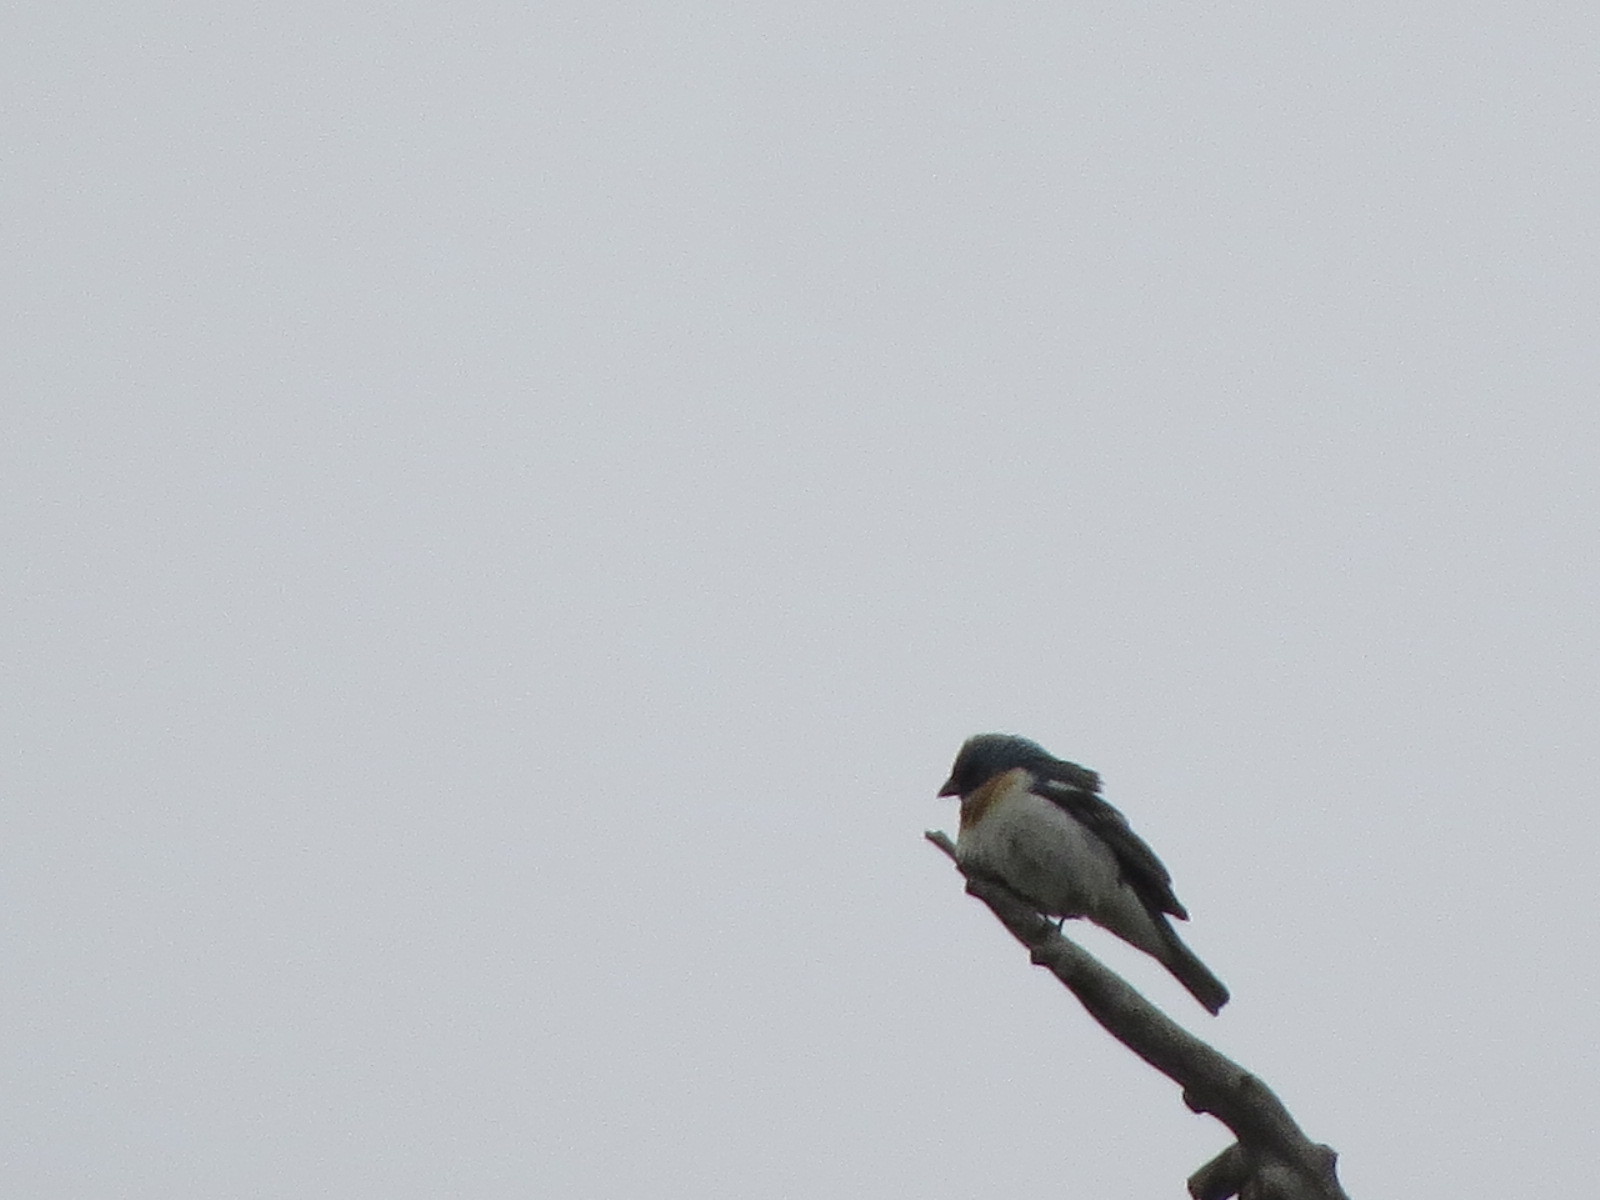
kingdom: Animalia
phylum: Chordata
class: Aves
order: Passeriformes
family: Cardinalidae
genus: Passerina
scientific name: Passerina amoena
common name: Lazuli bunting
